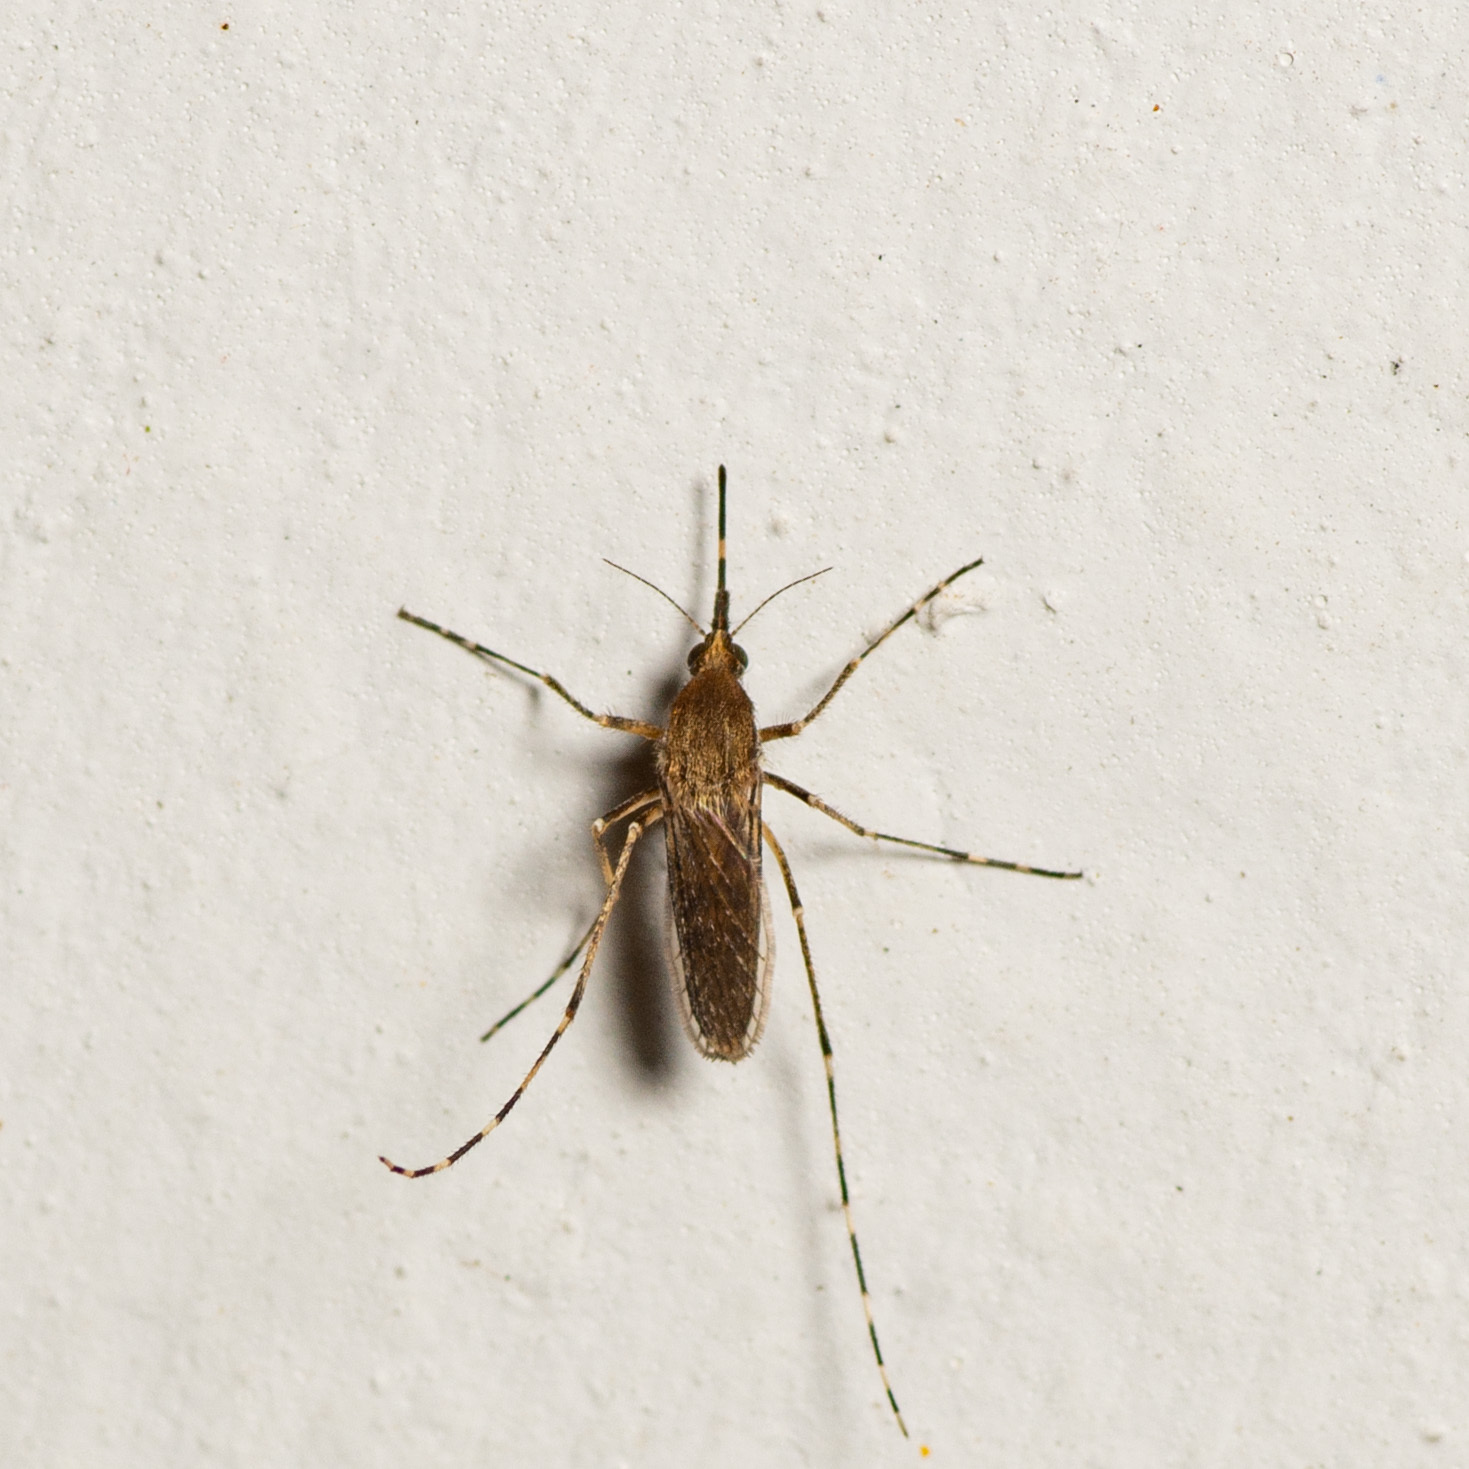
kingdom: Animalia
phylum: Arthropoda
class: Insecta
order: Diptera
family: Culicidae
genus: Aedes
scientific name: Aedes sollicitans
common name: Saltmarsh mosquito
